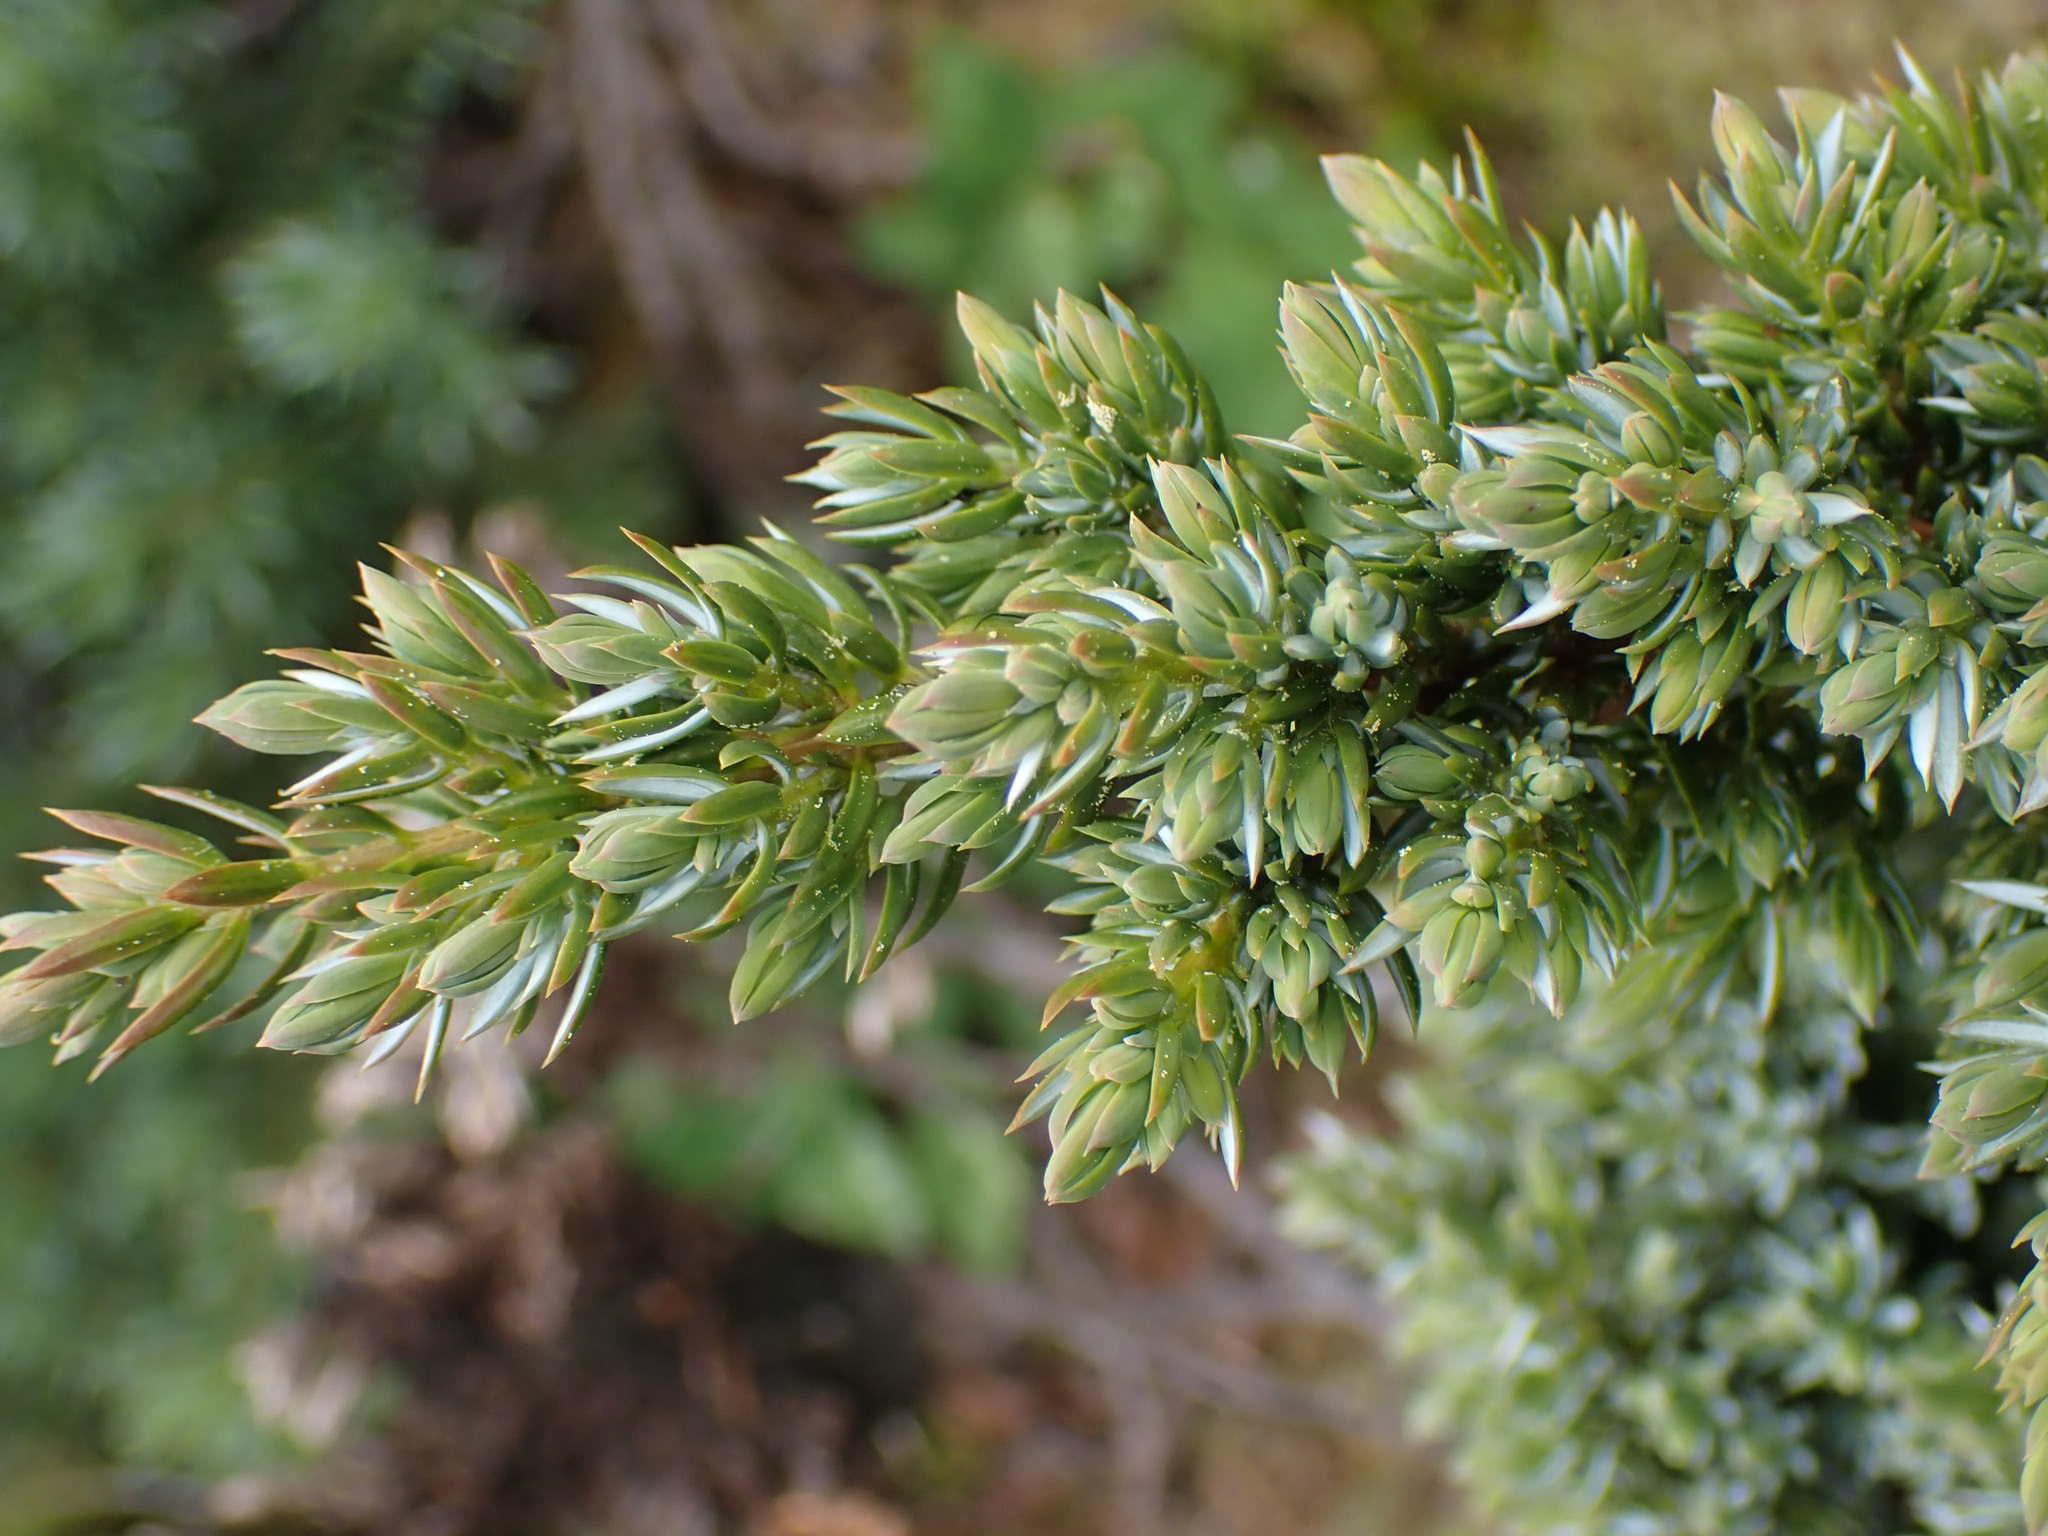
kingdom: Plantae
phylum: Tracheophyta
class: Pinopsida
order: Pinales
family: Cupressaceae
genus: Juniperus
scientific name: Juniperus communis
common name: Common juniper
